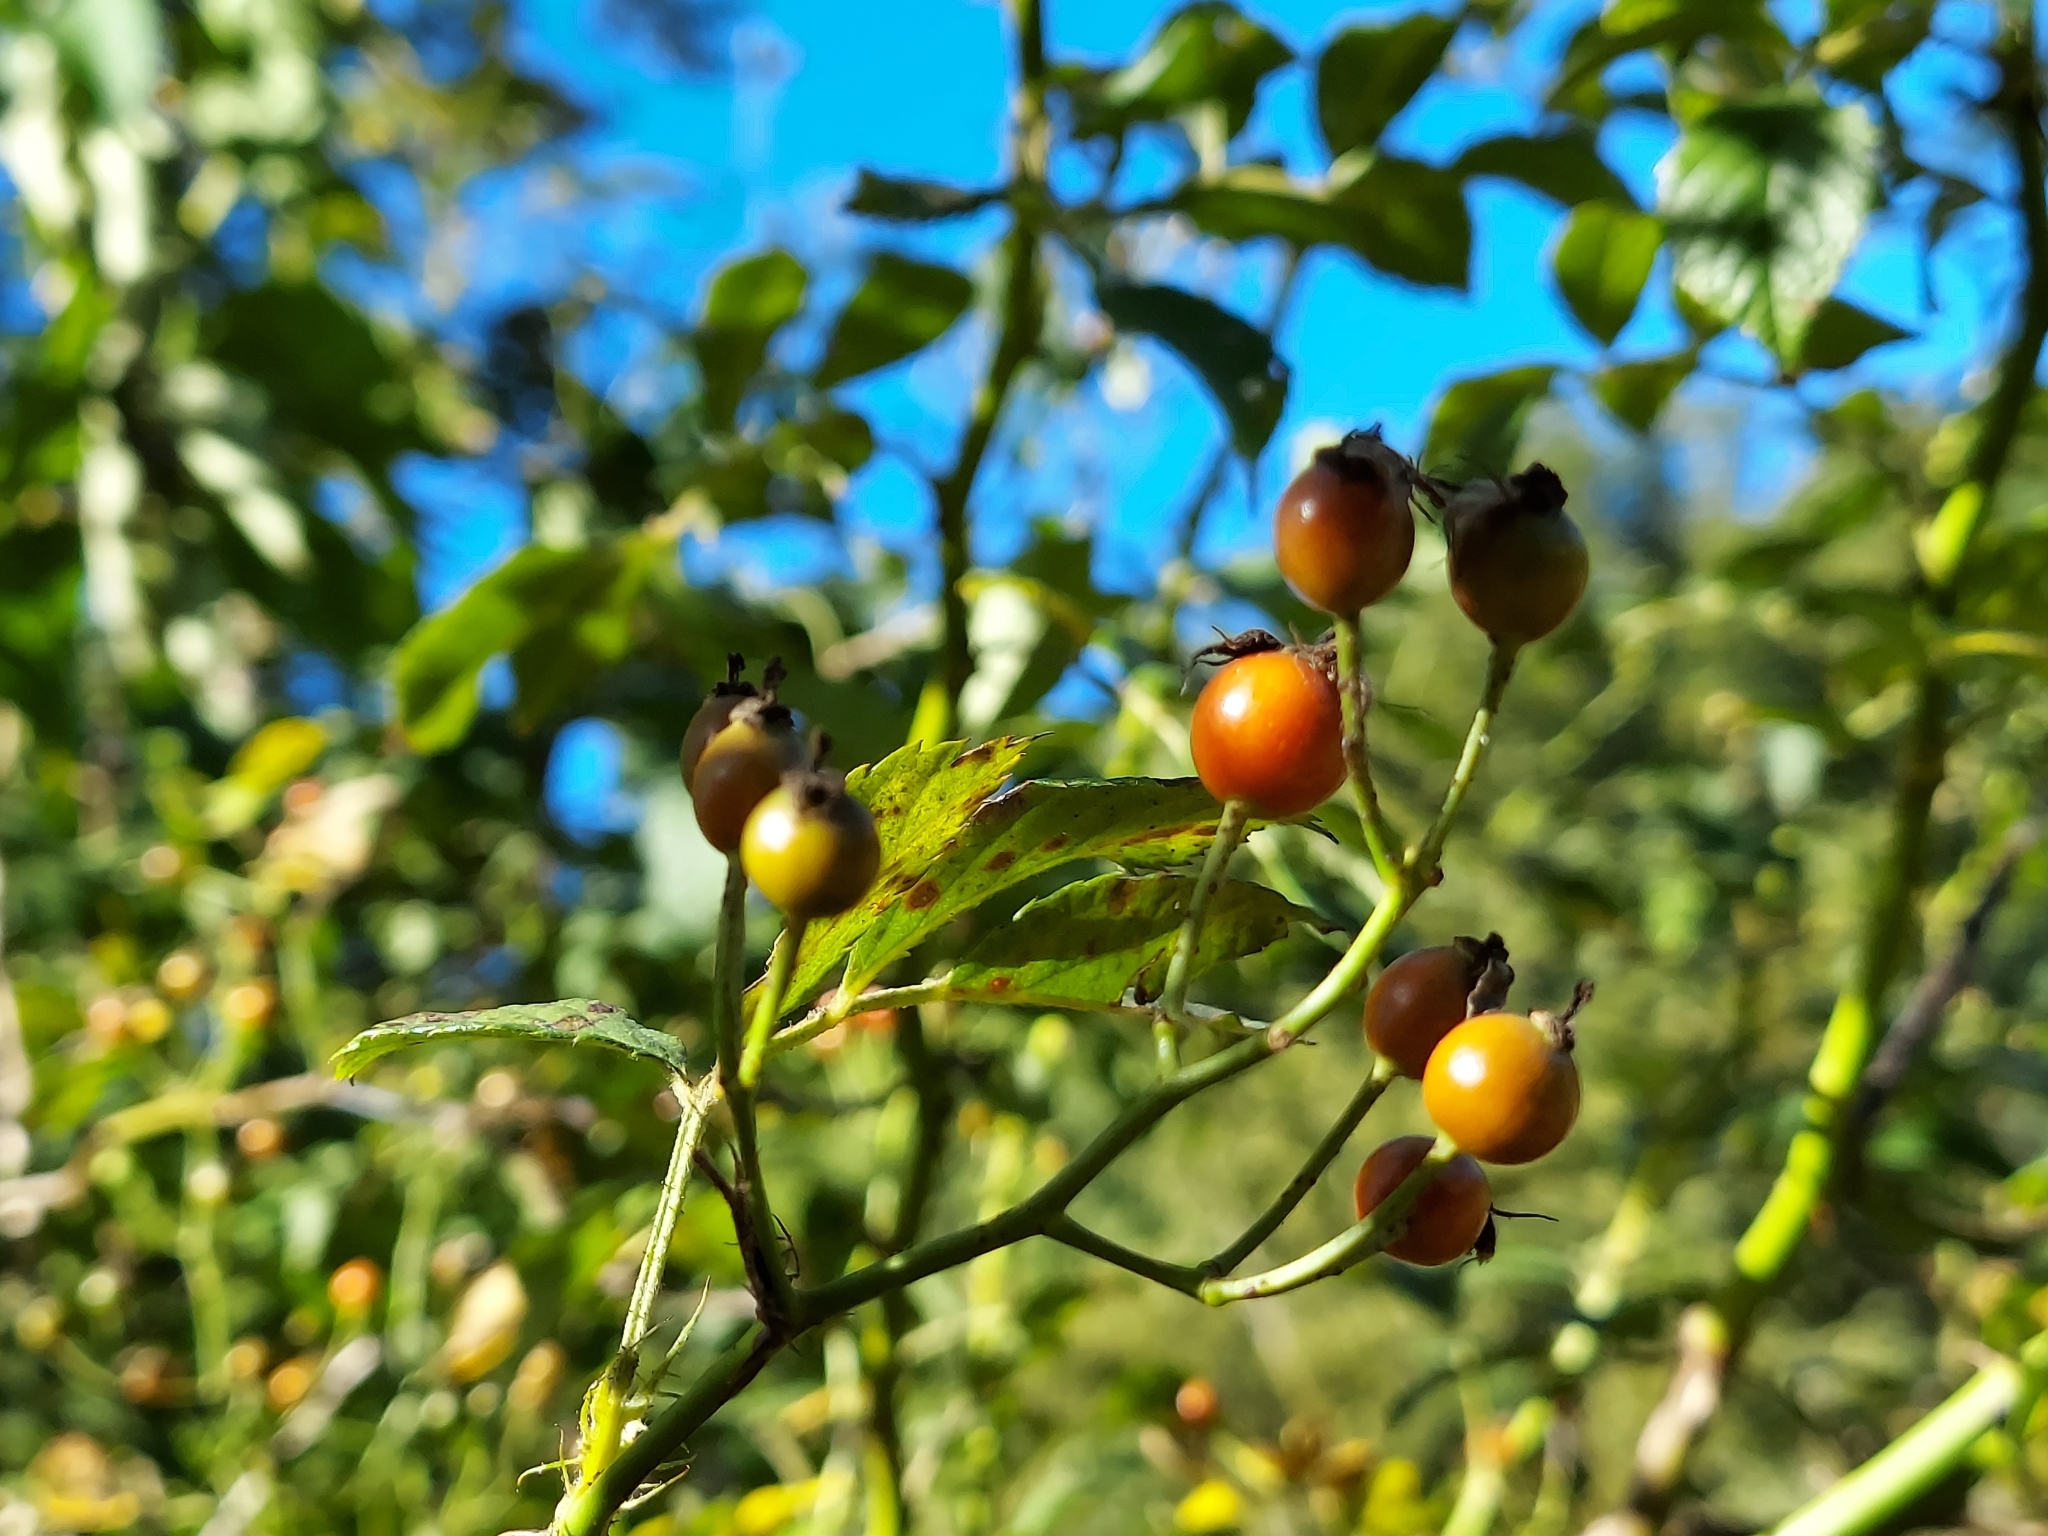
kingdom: Plantae
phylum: Tracheophyta
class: Magnoliopsida
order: Rosales
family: Rosaceae
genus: Rosa
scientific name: Rosa multiflora
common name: Multiflora rose
